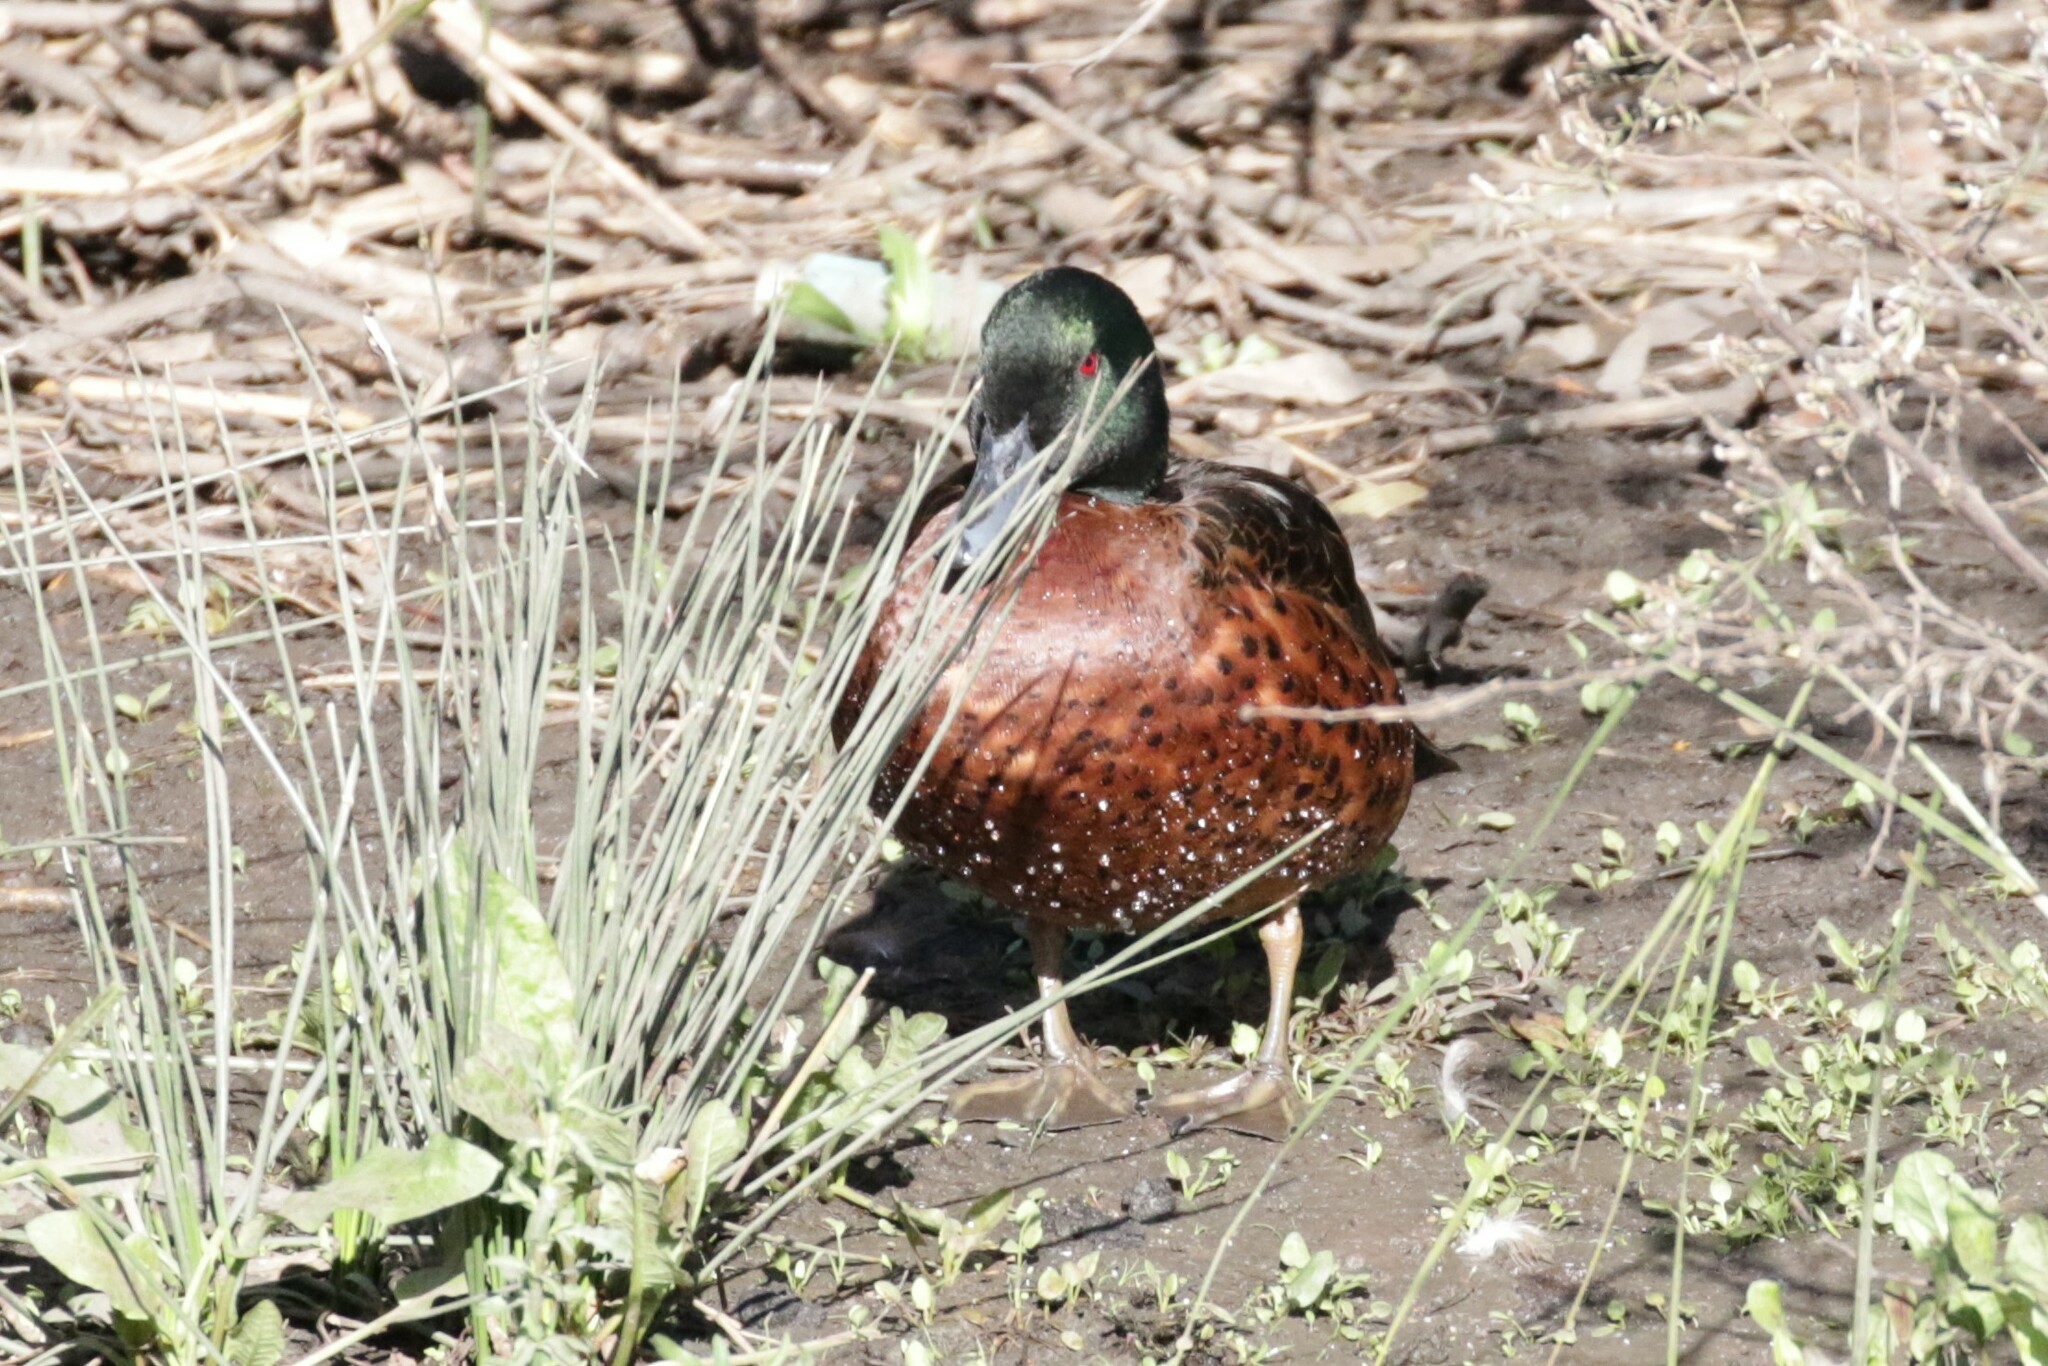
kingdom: Animalia
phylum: Chordata
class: Aves
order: Anseriformes
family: Anatidae
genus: Anas
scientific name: Anas castanea
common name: Chestnut teal
